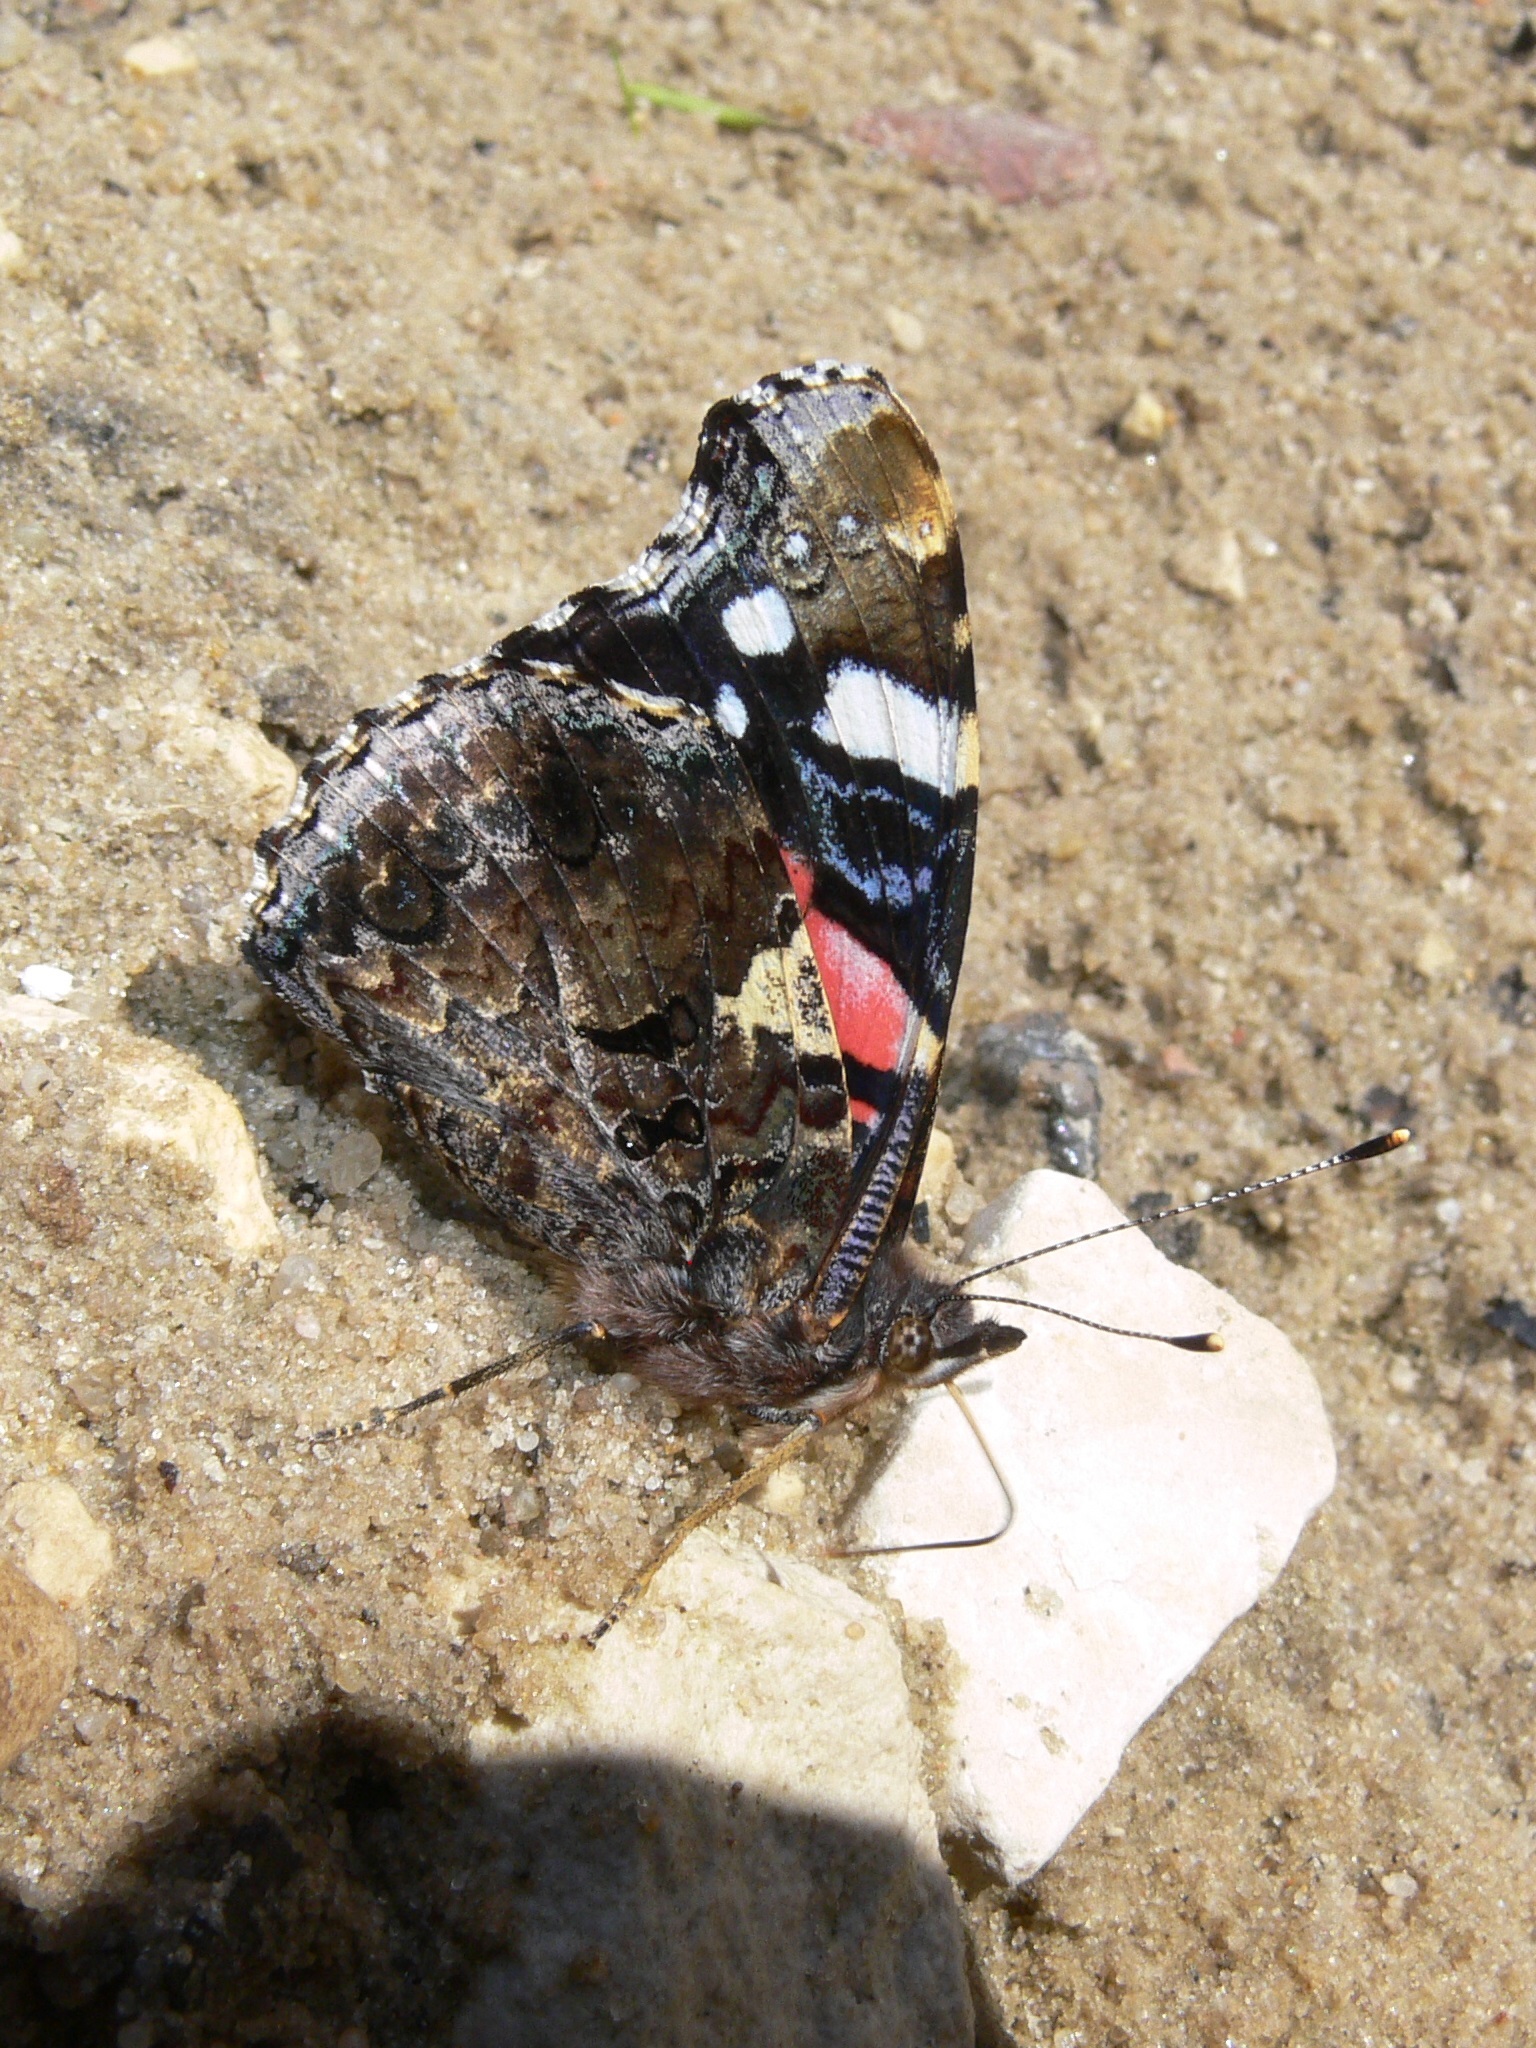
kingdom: Animalia
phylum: Arthropoda
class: Insecta
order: Lepidoptera
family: Nymphalidae
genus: Vanessa
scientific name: Vanessa atalanta
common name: Red admiral
